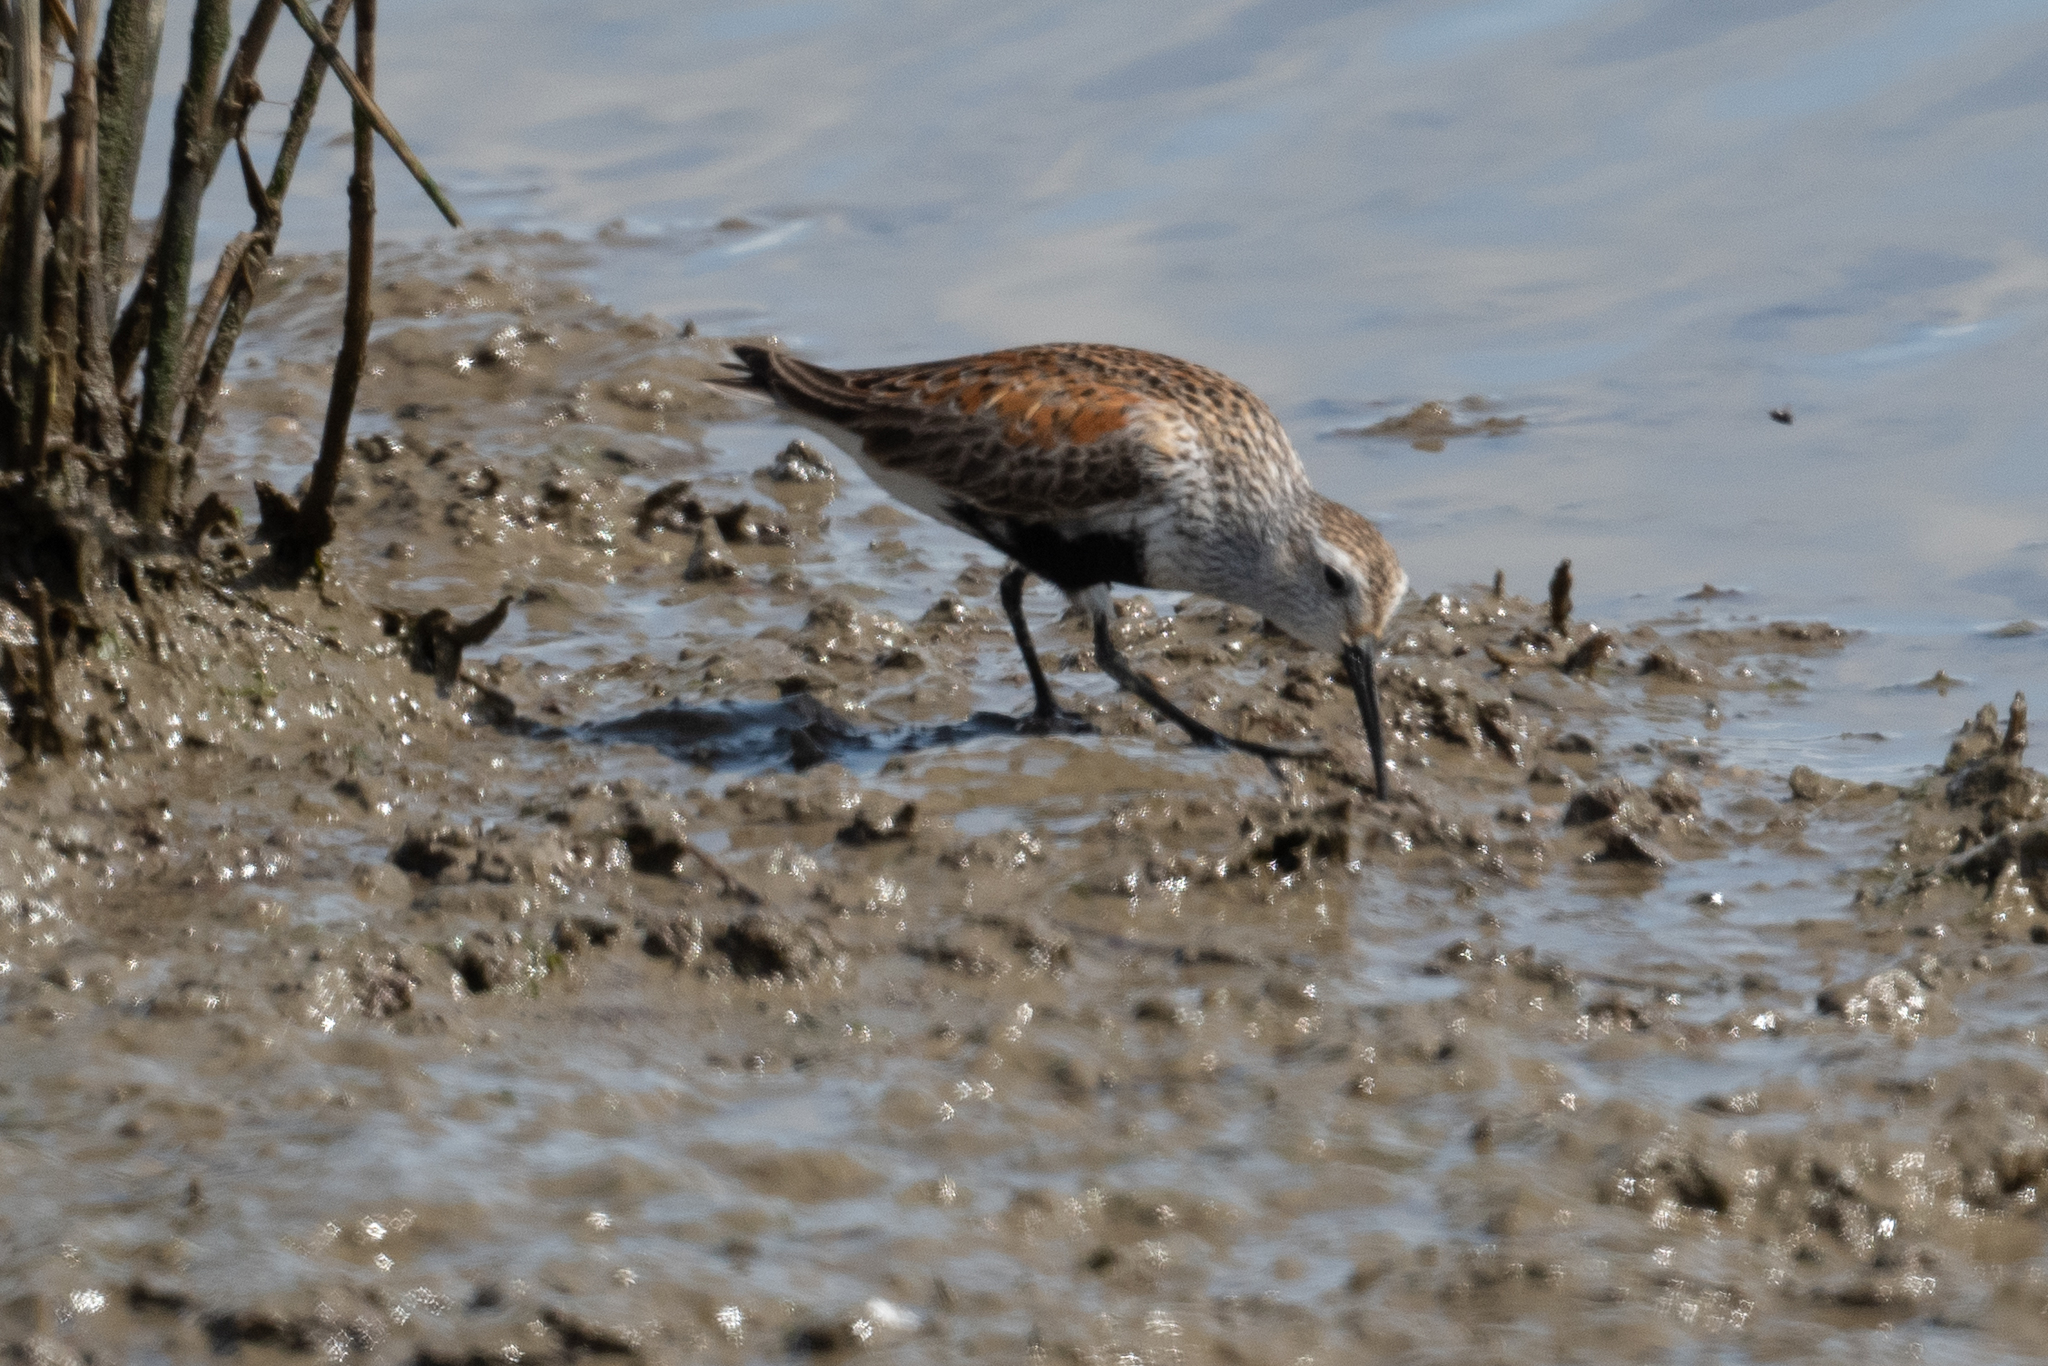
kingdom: Animalia
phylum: Chordata
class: Aves
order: Charadriiformes
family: Scolopacidae
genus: Calidris
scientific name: Calidris alpina
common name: Dunlin
